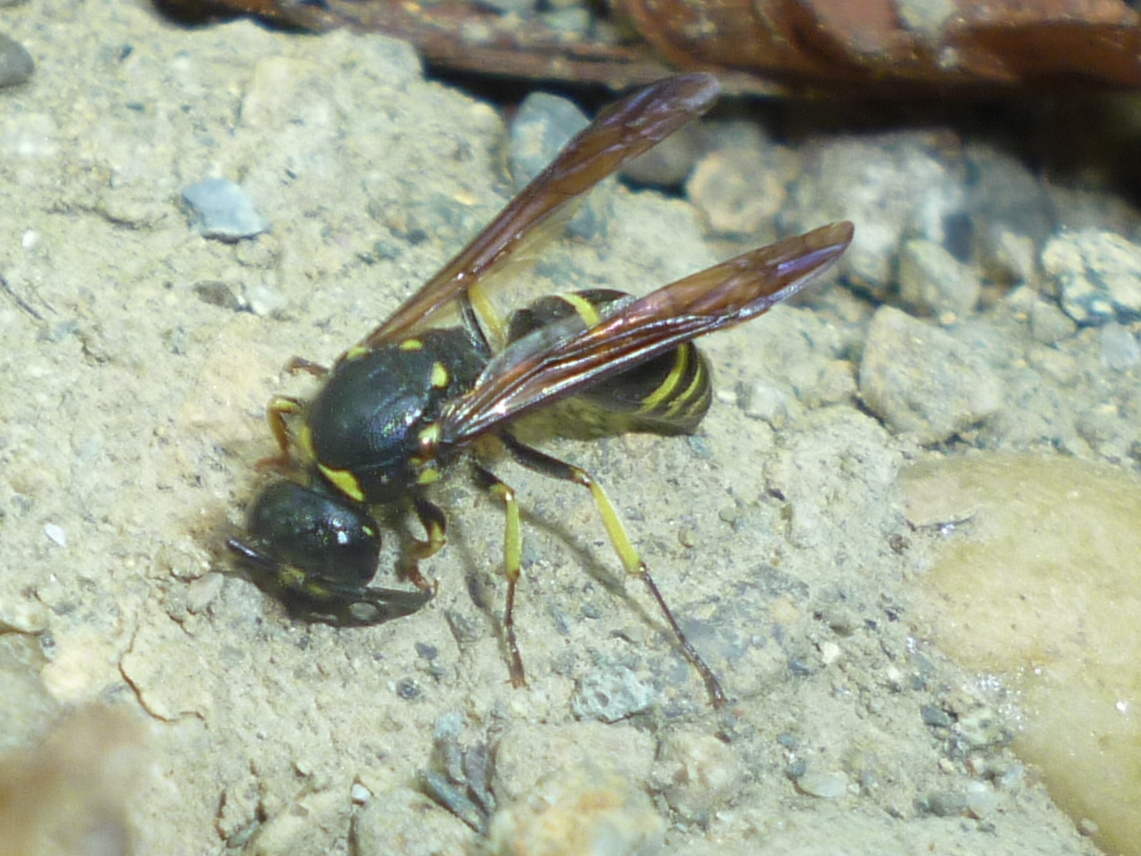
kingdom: Animalia
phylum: Arthropoda
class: Insecta
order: Hymenoptera
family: Vespidae
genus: Ancistrocerus
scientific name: Ancistrocerus
